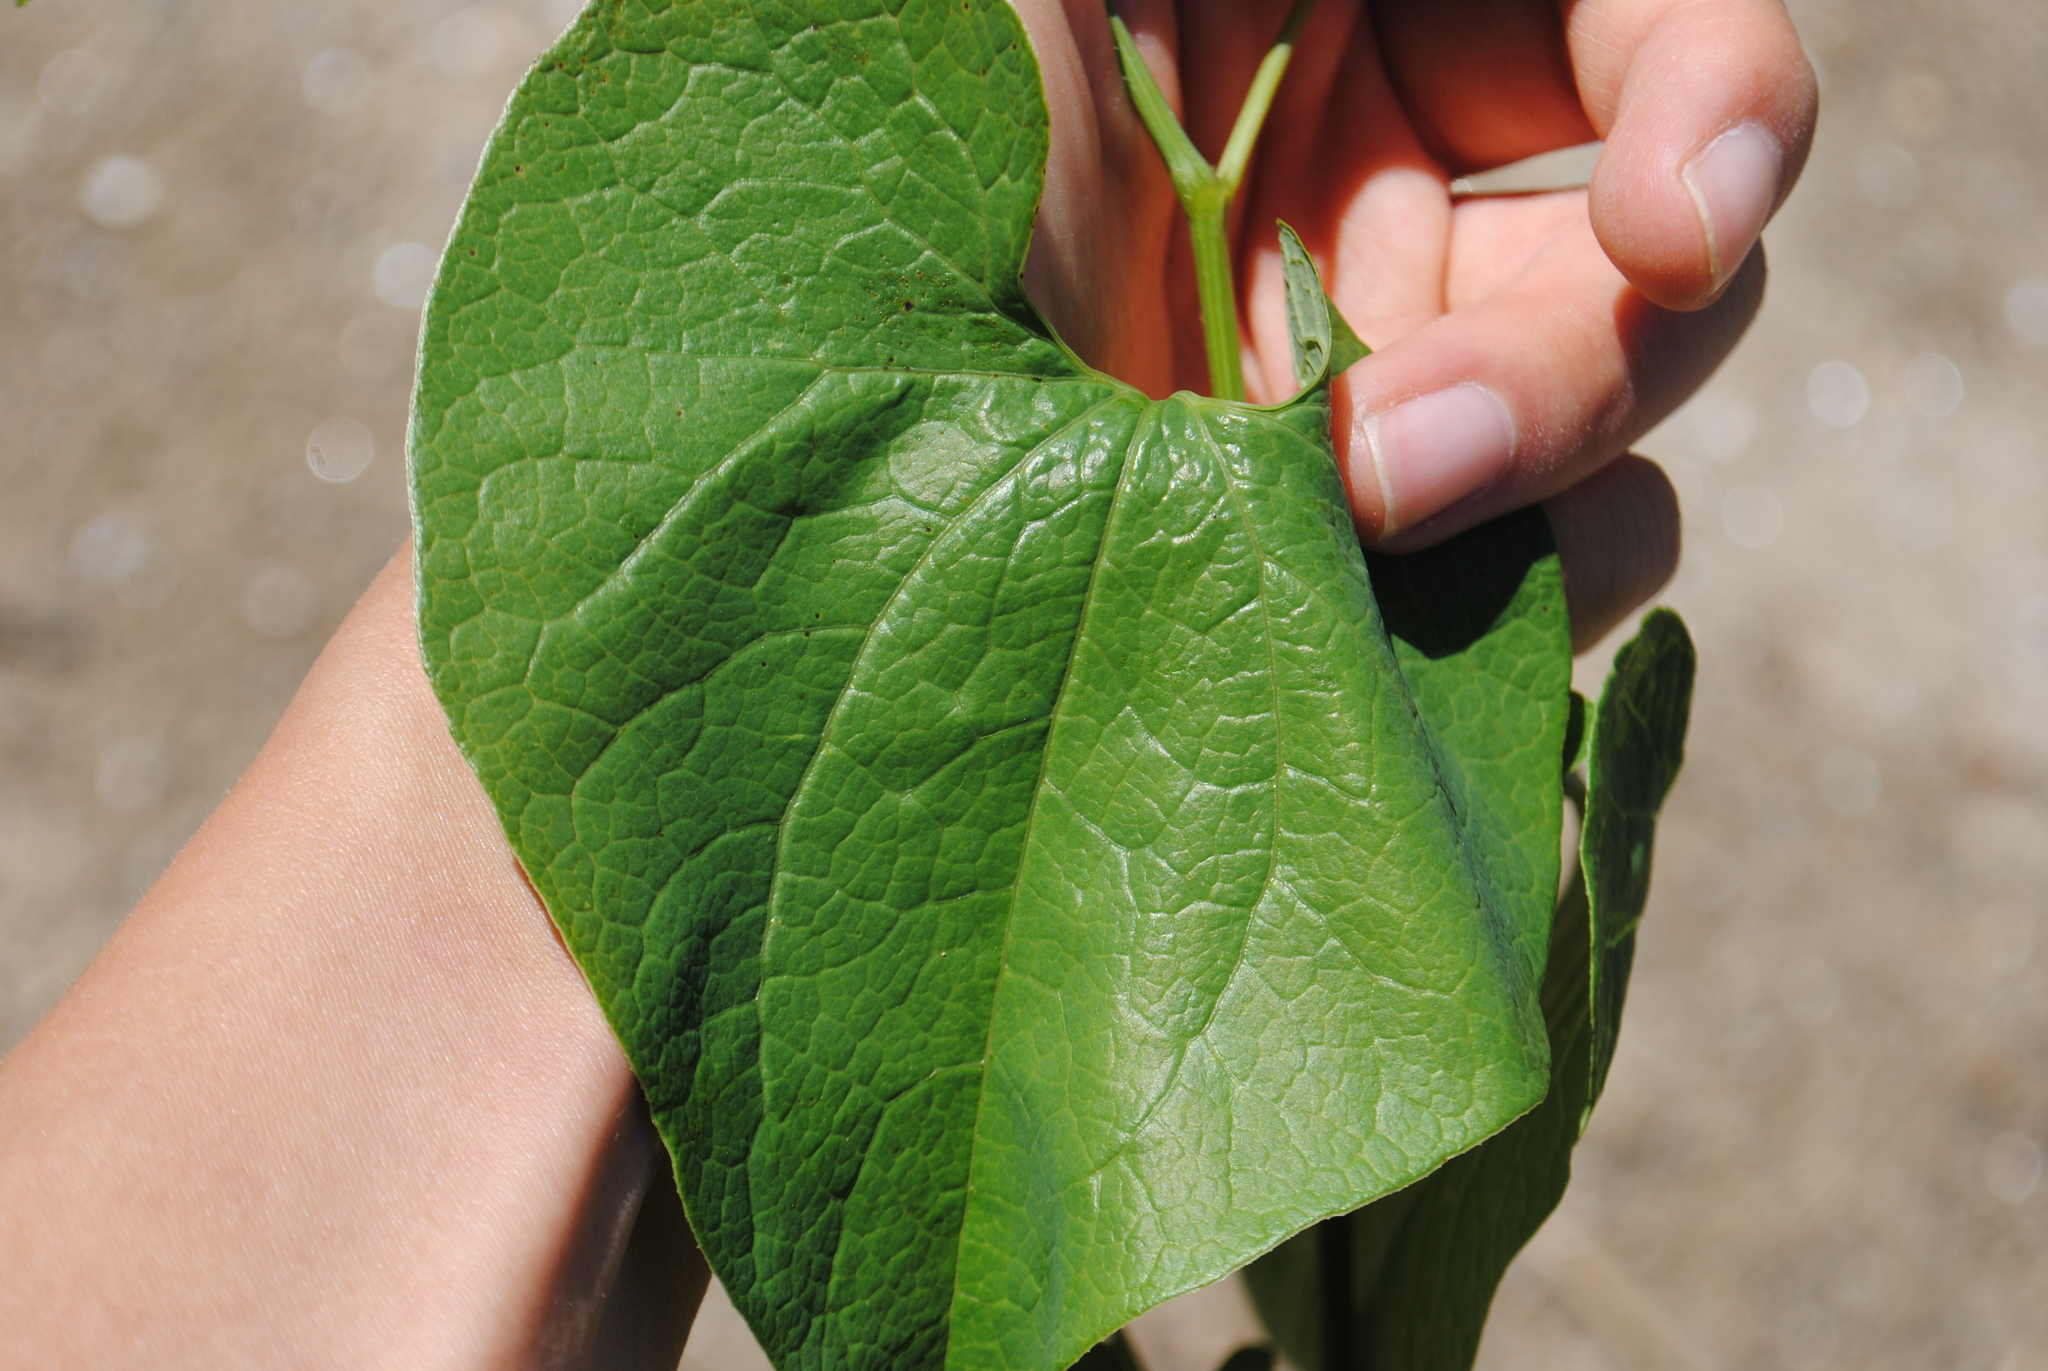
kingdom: Plantae
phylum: Tracheophyta
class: Magnoliopsida
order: Piperales
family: Aristolochiaceae
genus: Aristolochia
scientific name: Aristolochia clematitis
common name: Birthwort
